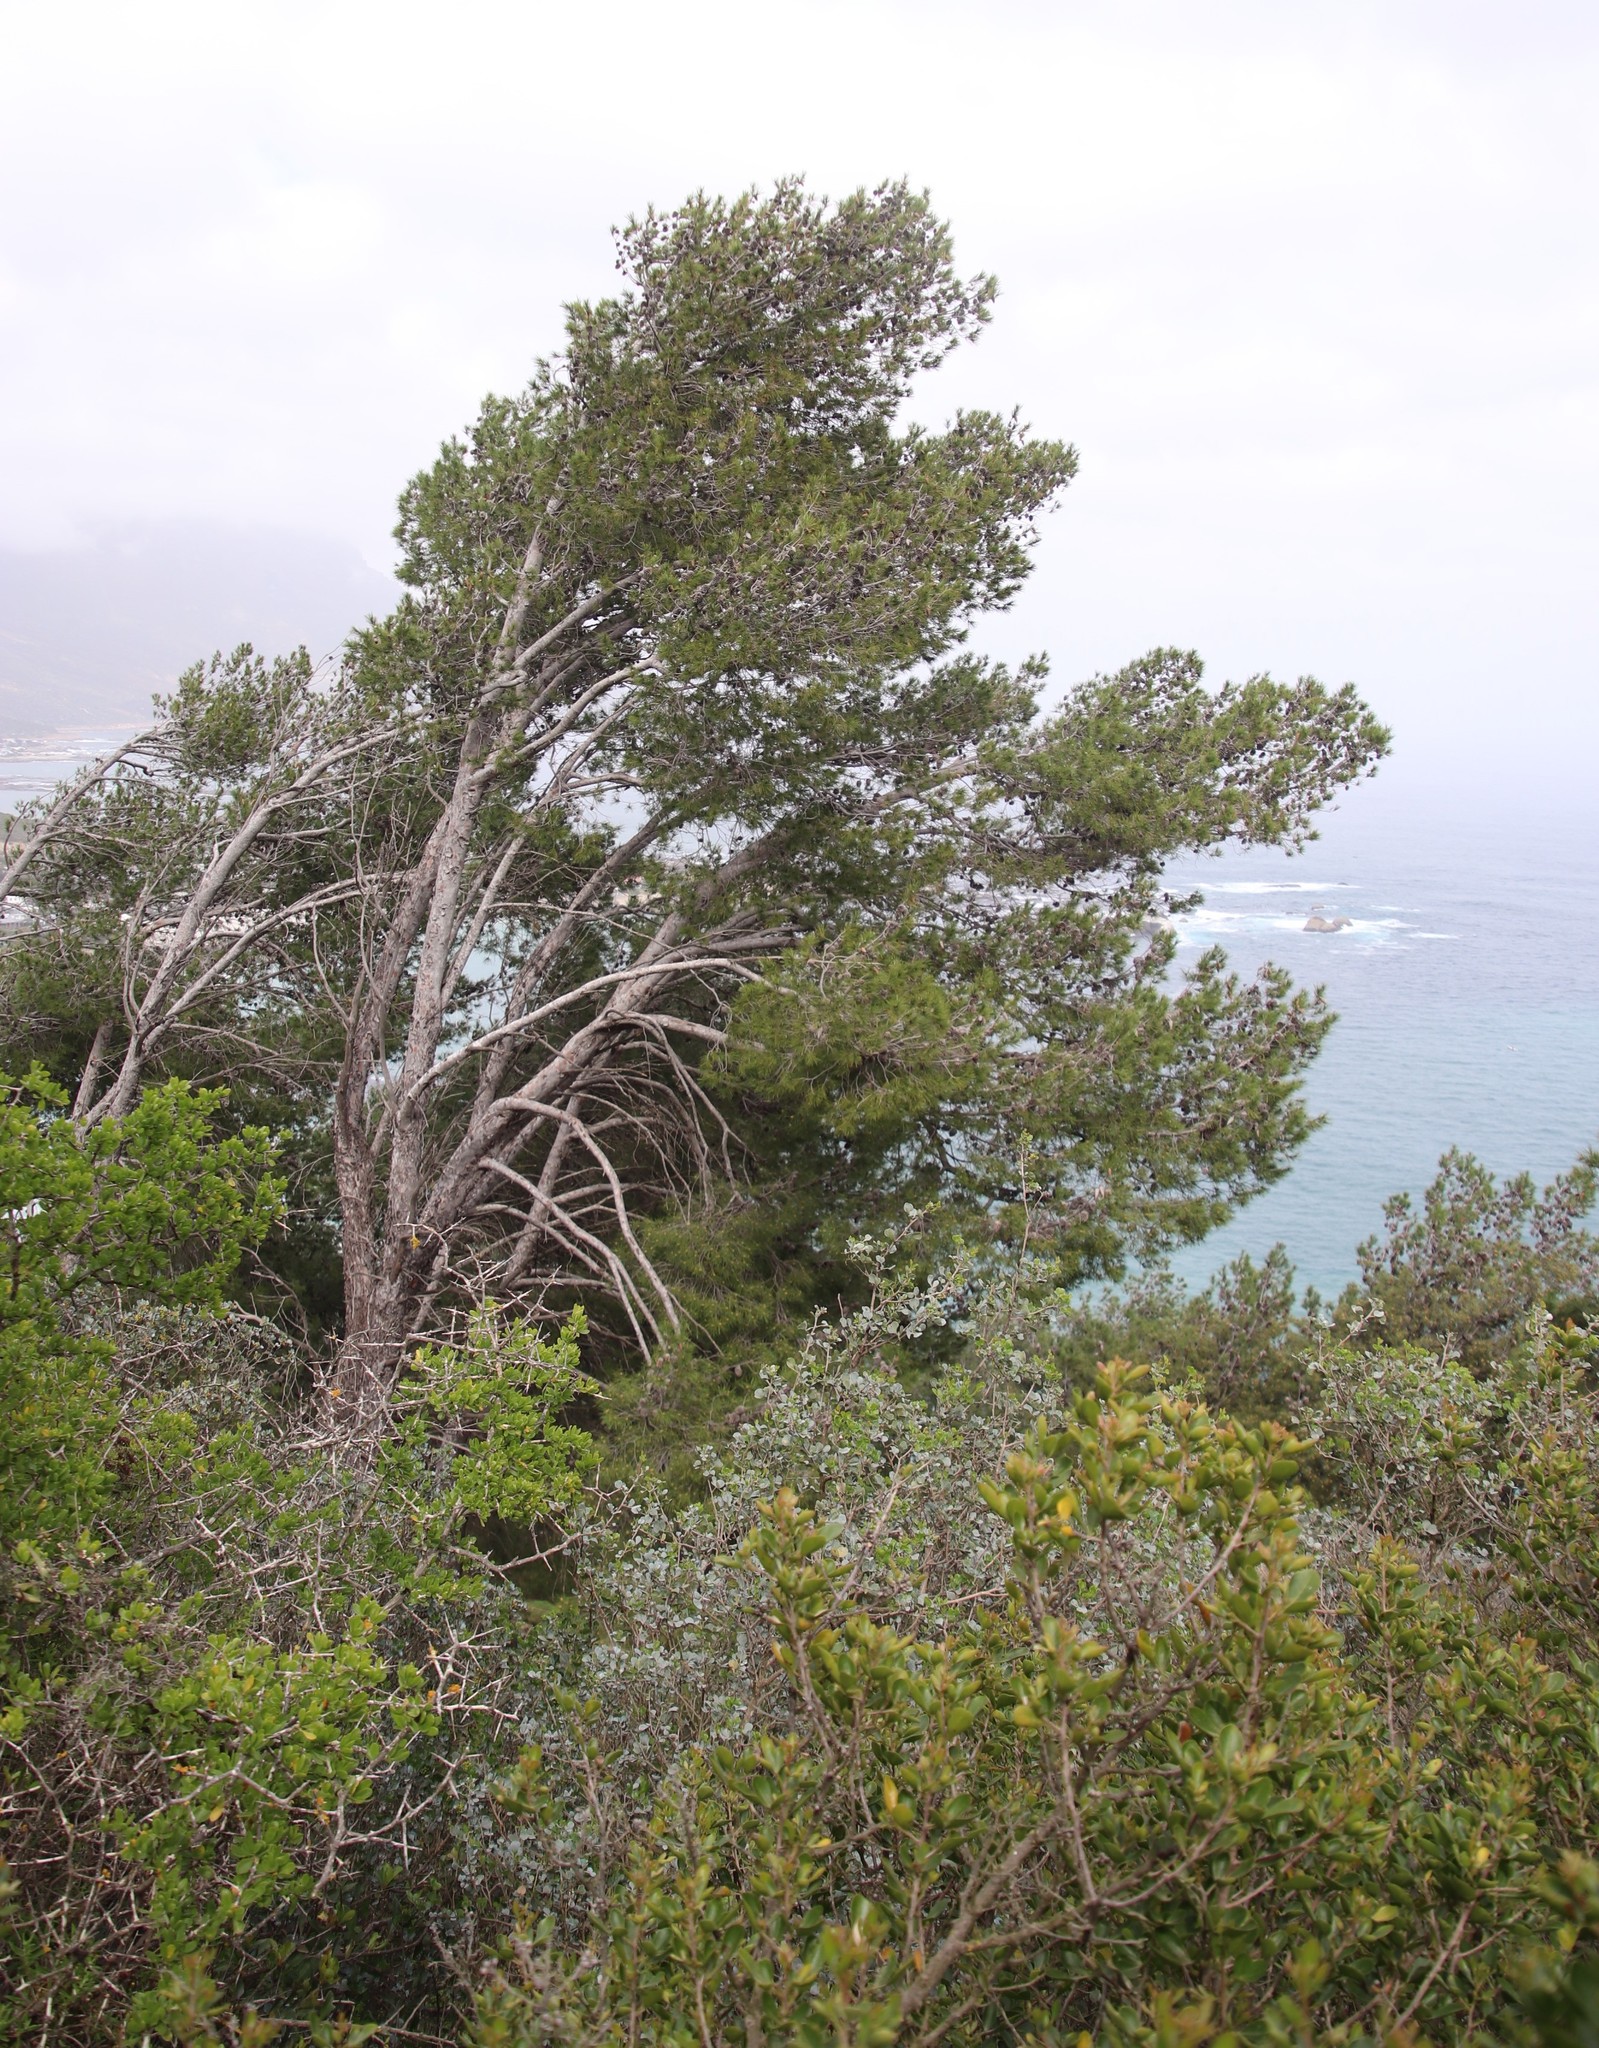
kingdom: Plantae
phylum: Tracheophyta
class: Pinopsida
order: Pinales
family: Pinaceae
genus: Pinus
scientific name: Pinus halepensis
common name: Aleppo pine
